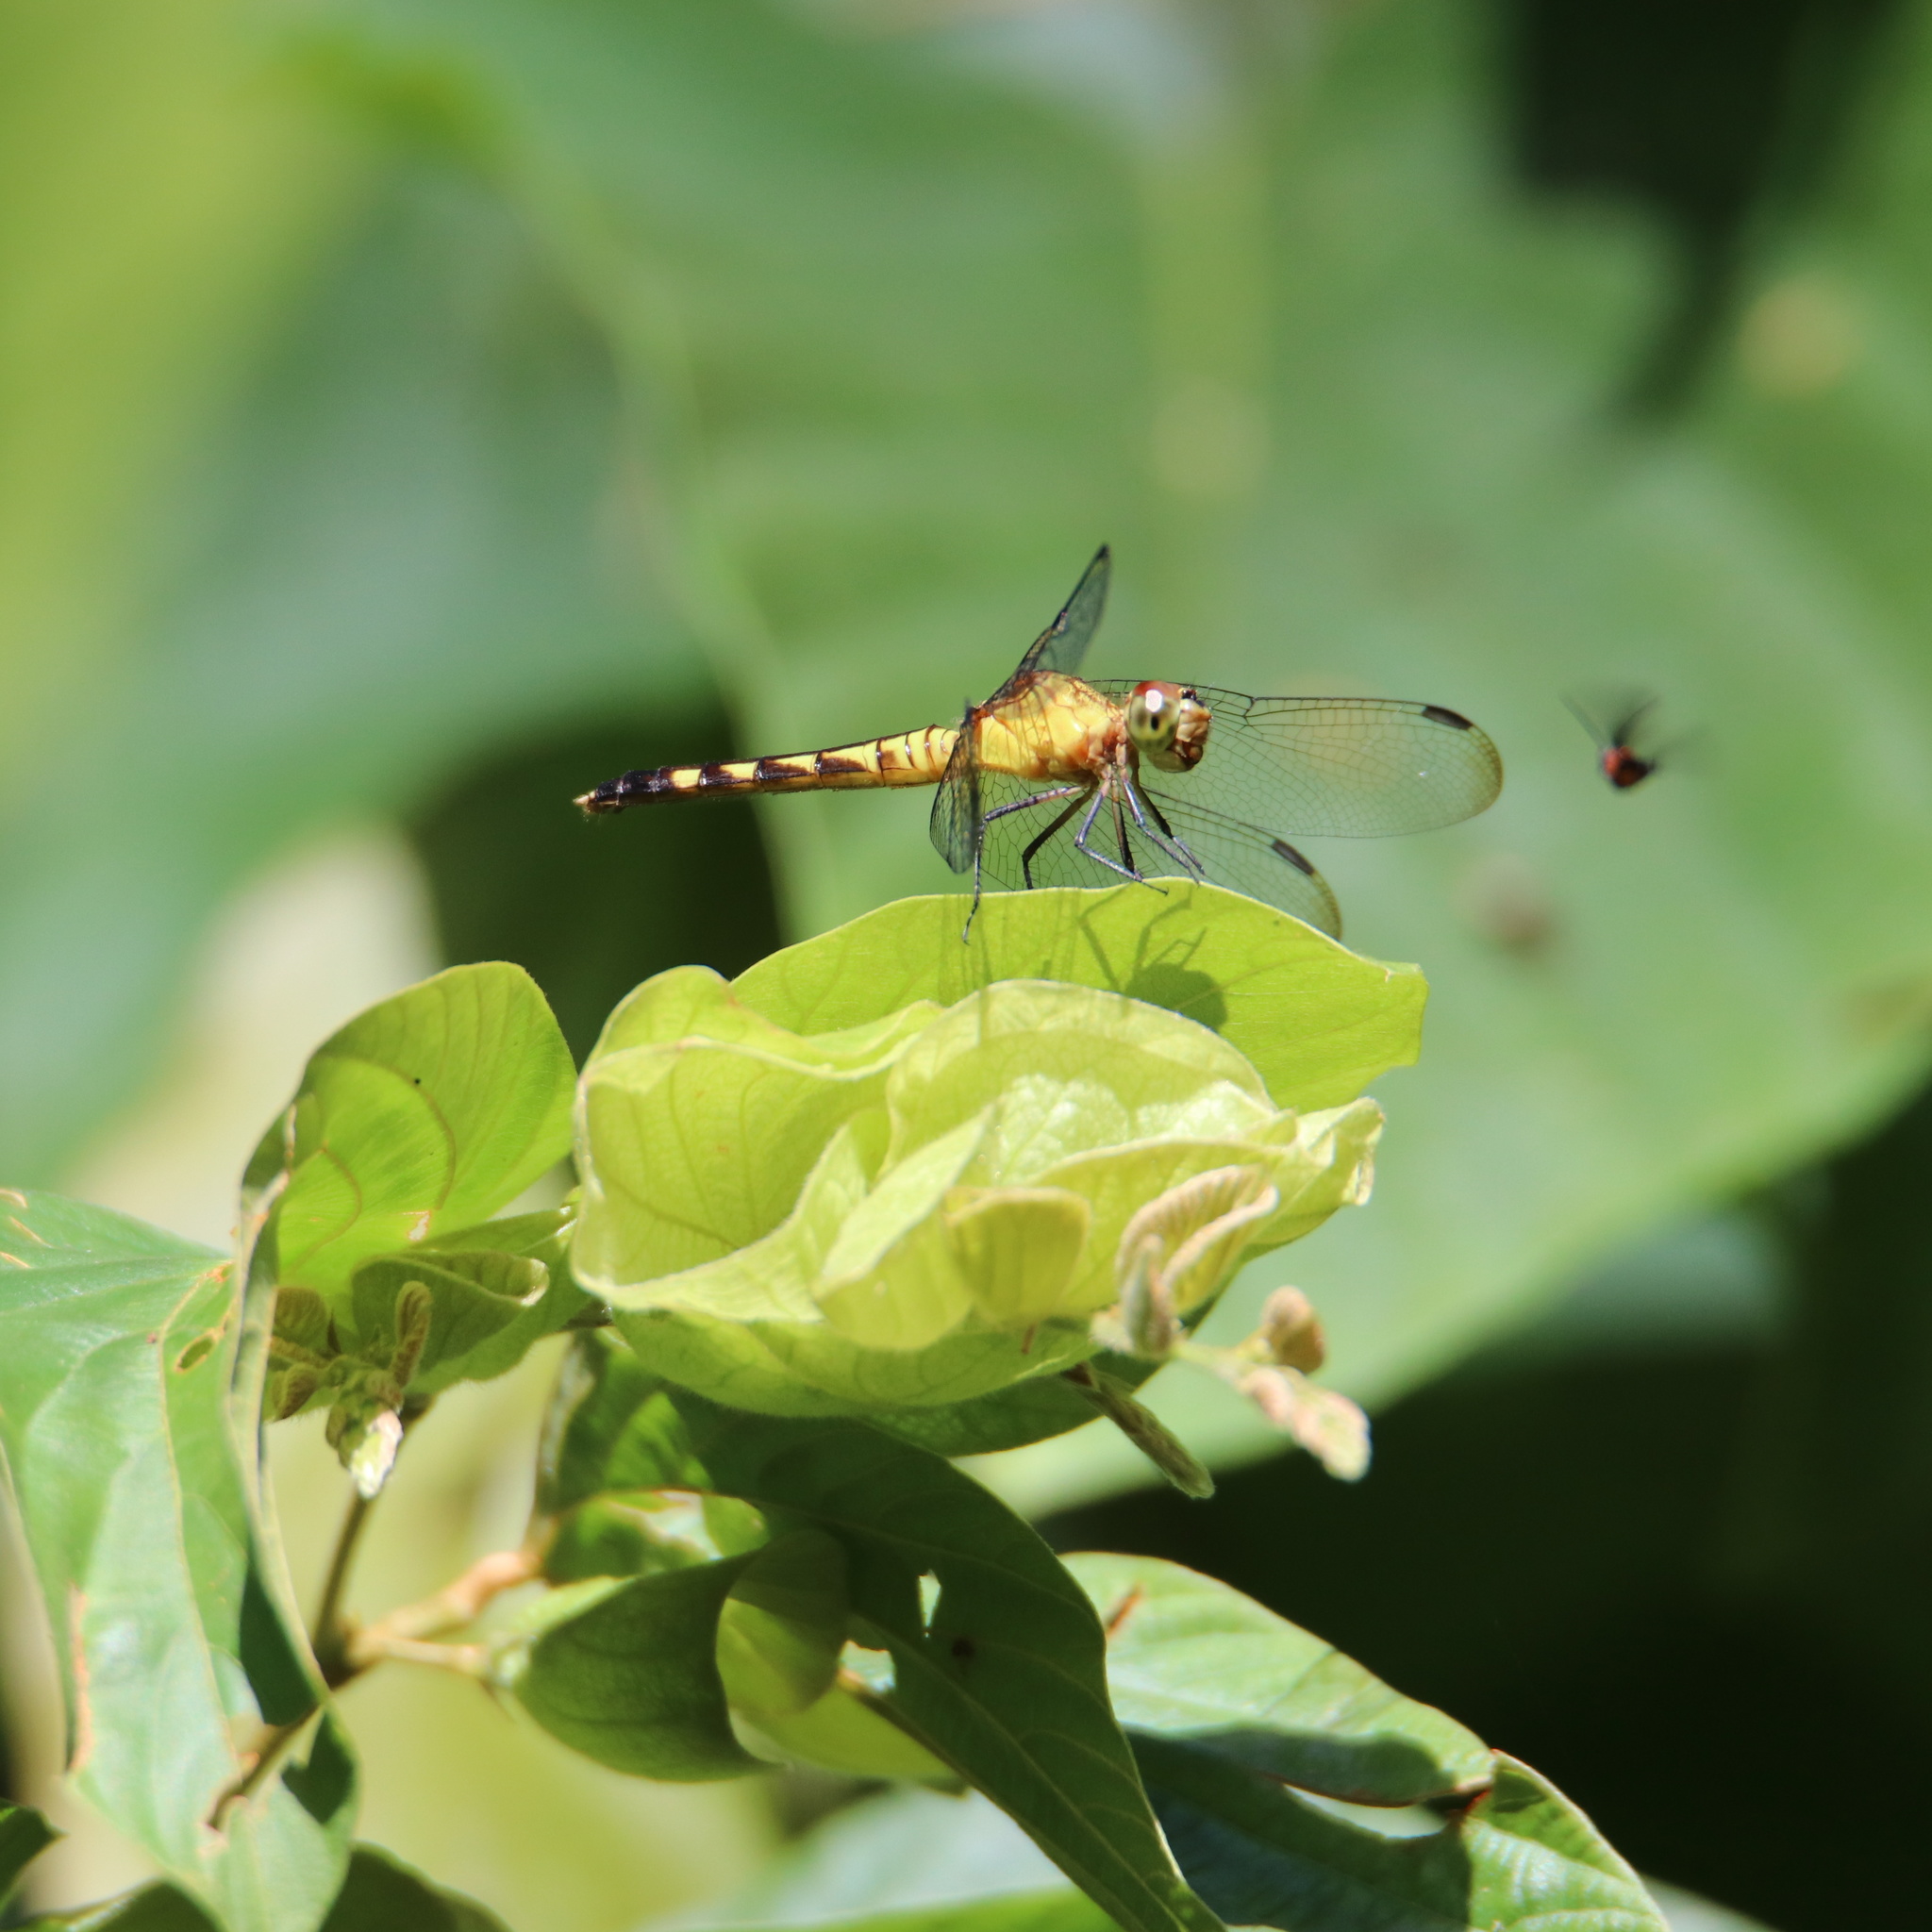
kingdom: Animalia
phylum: Arthropoda
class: Insecta
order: Odonata
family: Libellulidae
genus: Erythrodiplax
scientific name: Erythrodiplax fervida
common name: Red-mantled dragonlet
